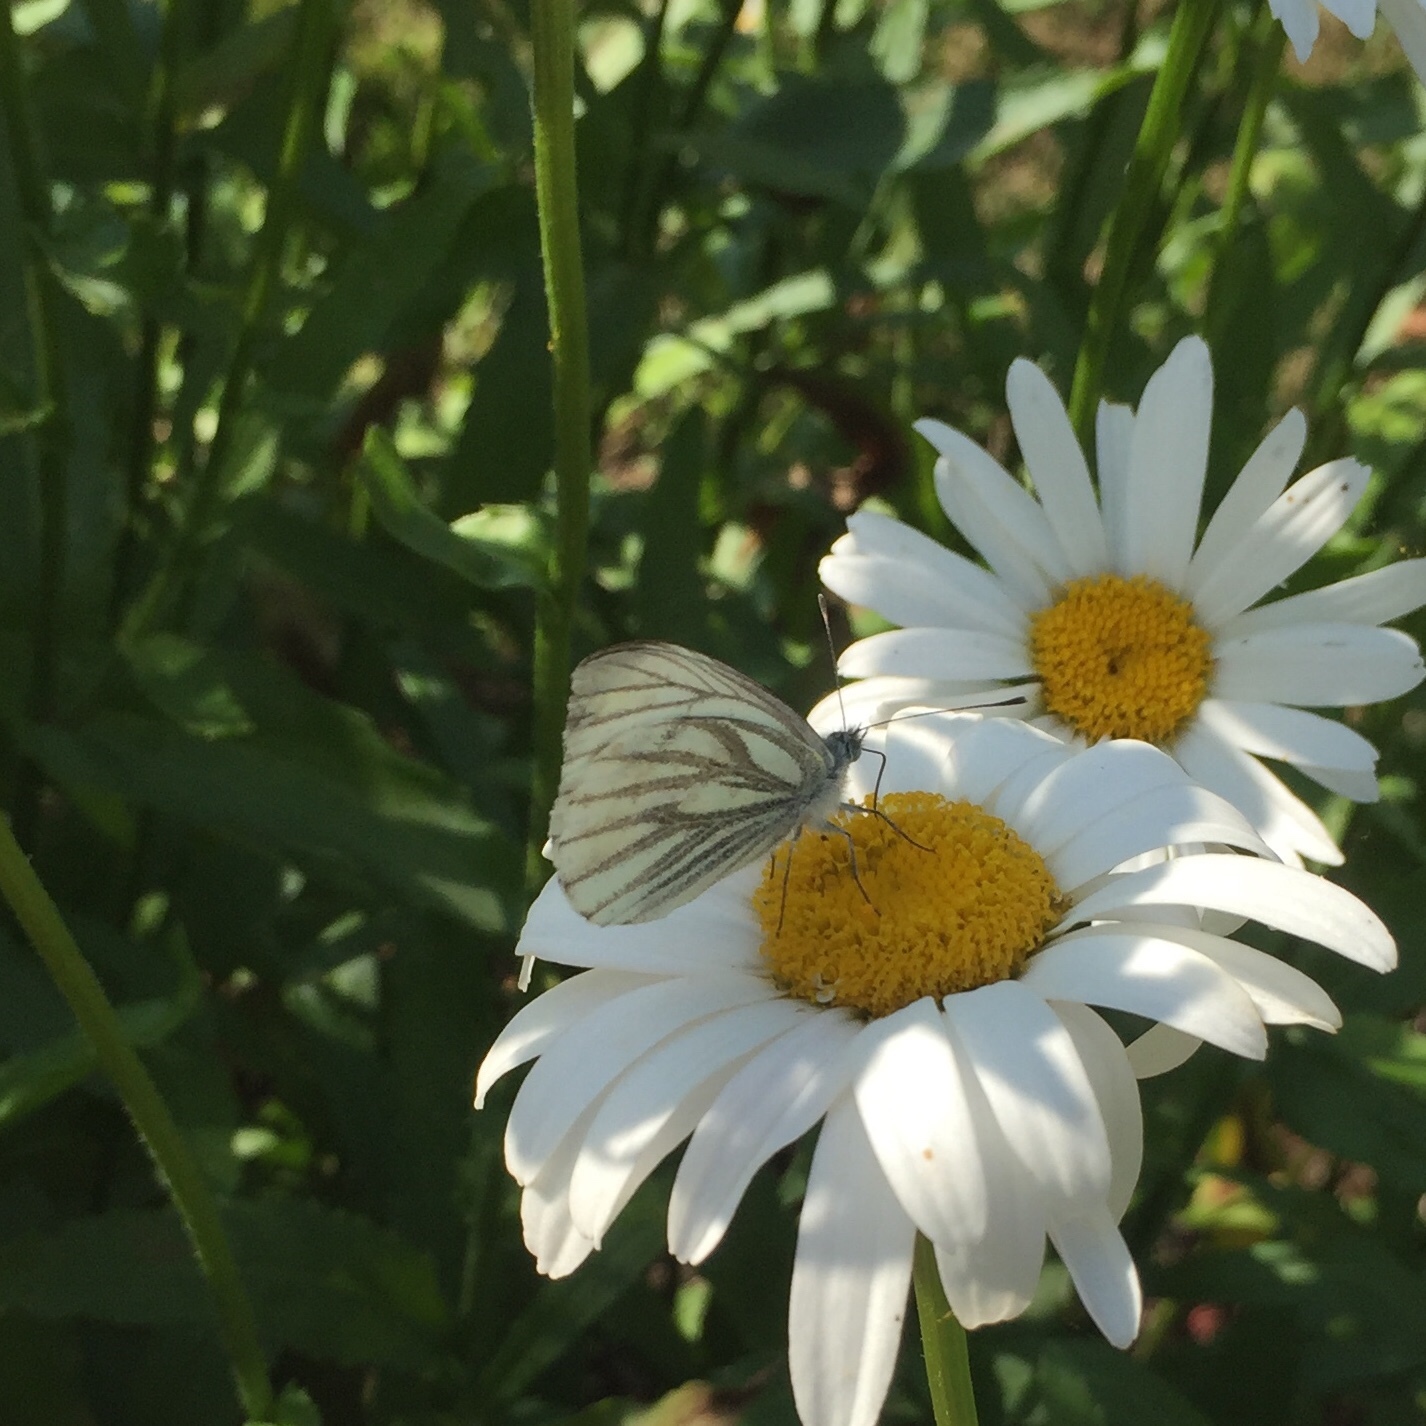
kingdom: Animalia
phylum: Arthropoda
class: Insecta
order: Lepidoptera
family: Pieridae
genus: Pieris
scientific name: Pieris napi
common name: Green-veined white
